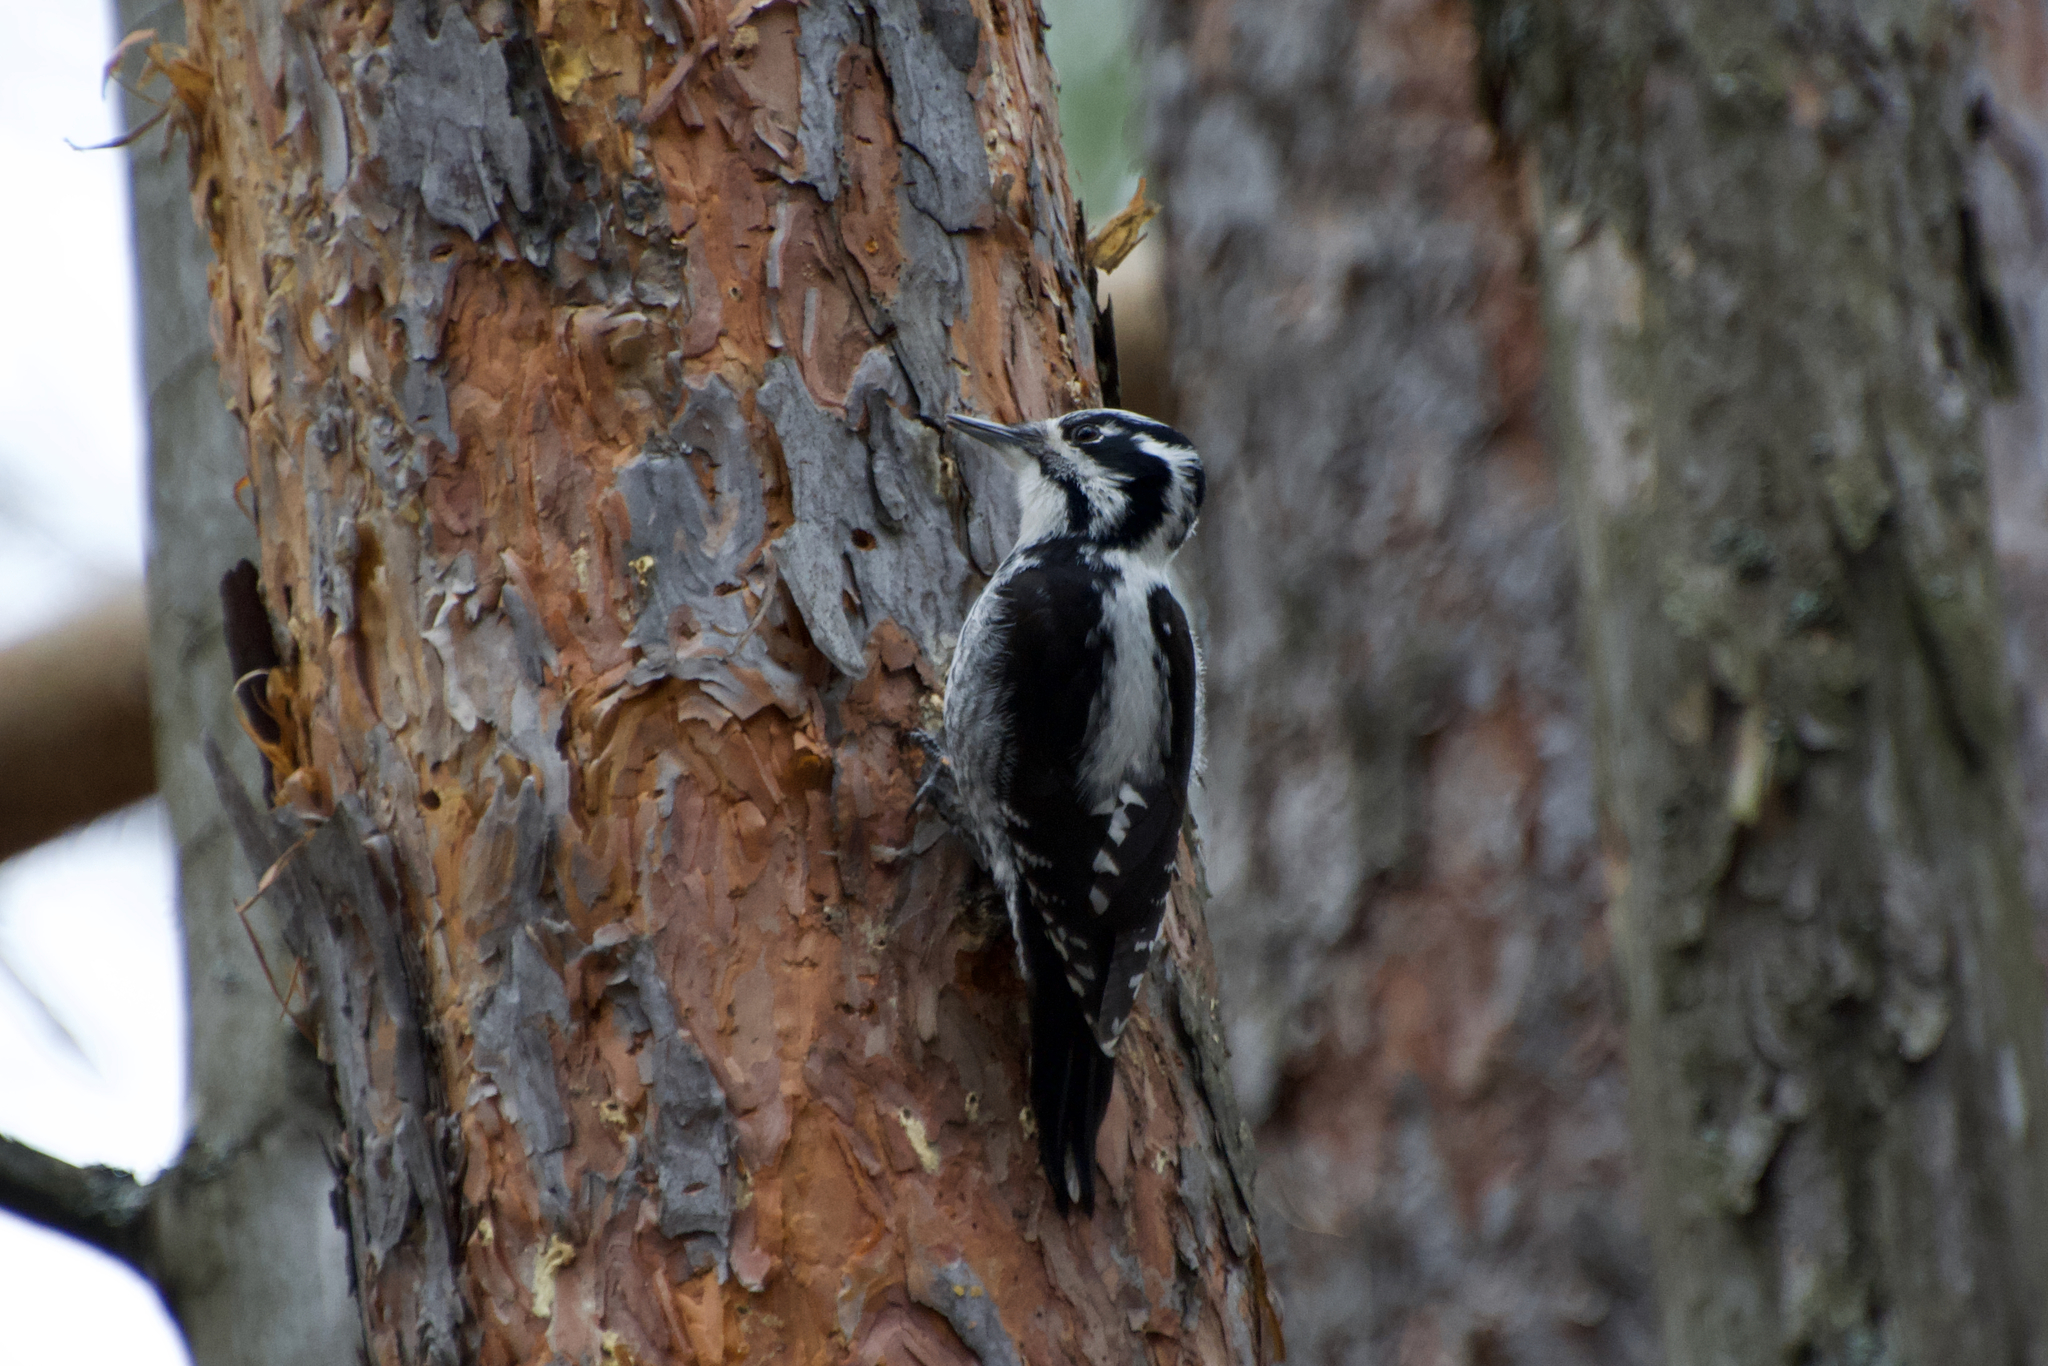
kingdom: Animalia
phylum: Chordata
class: Aves
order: Piciformes
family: Picidae
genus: Picoides
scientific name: Picoides tridactylus
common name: Eurasian three-toed woodpecker
